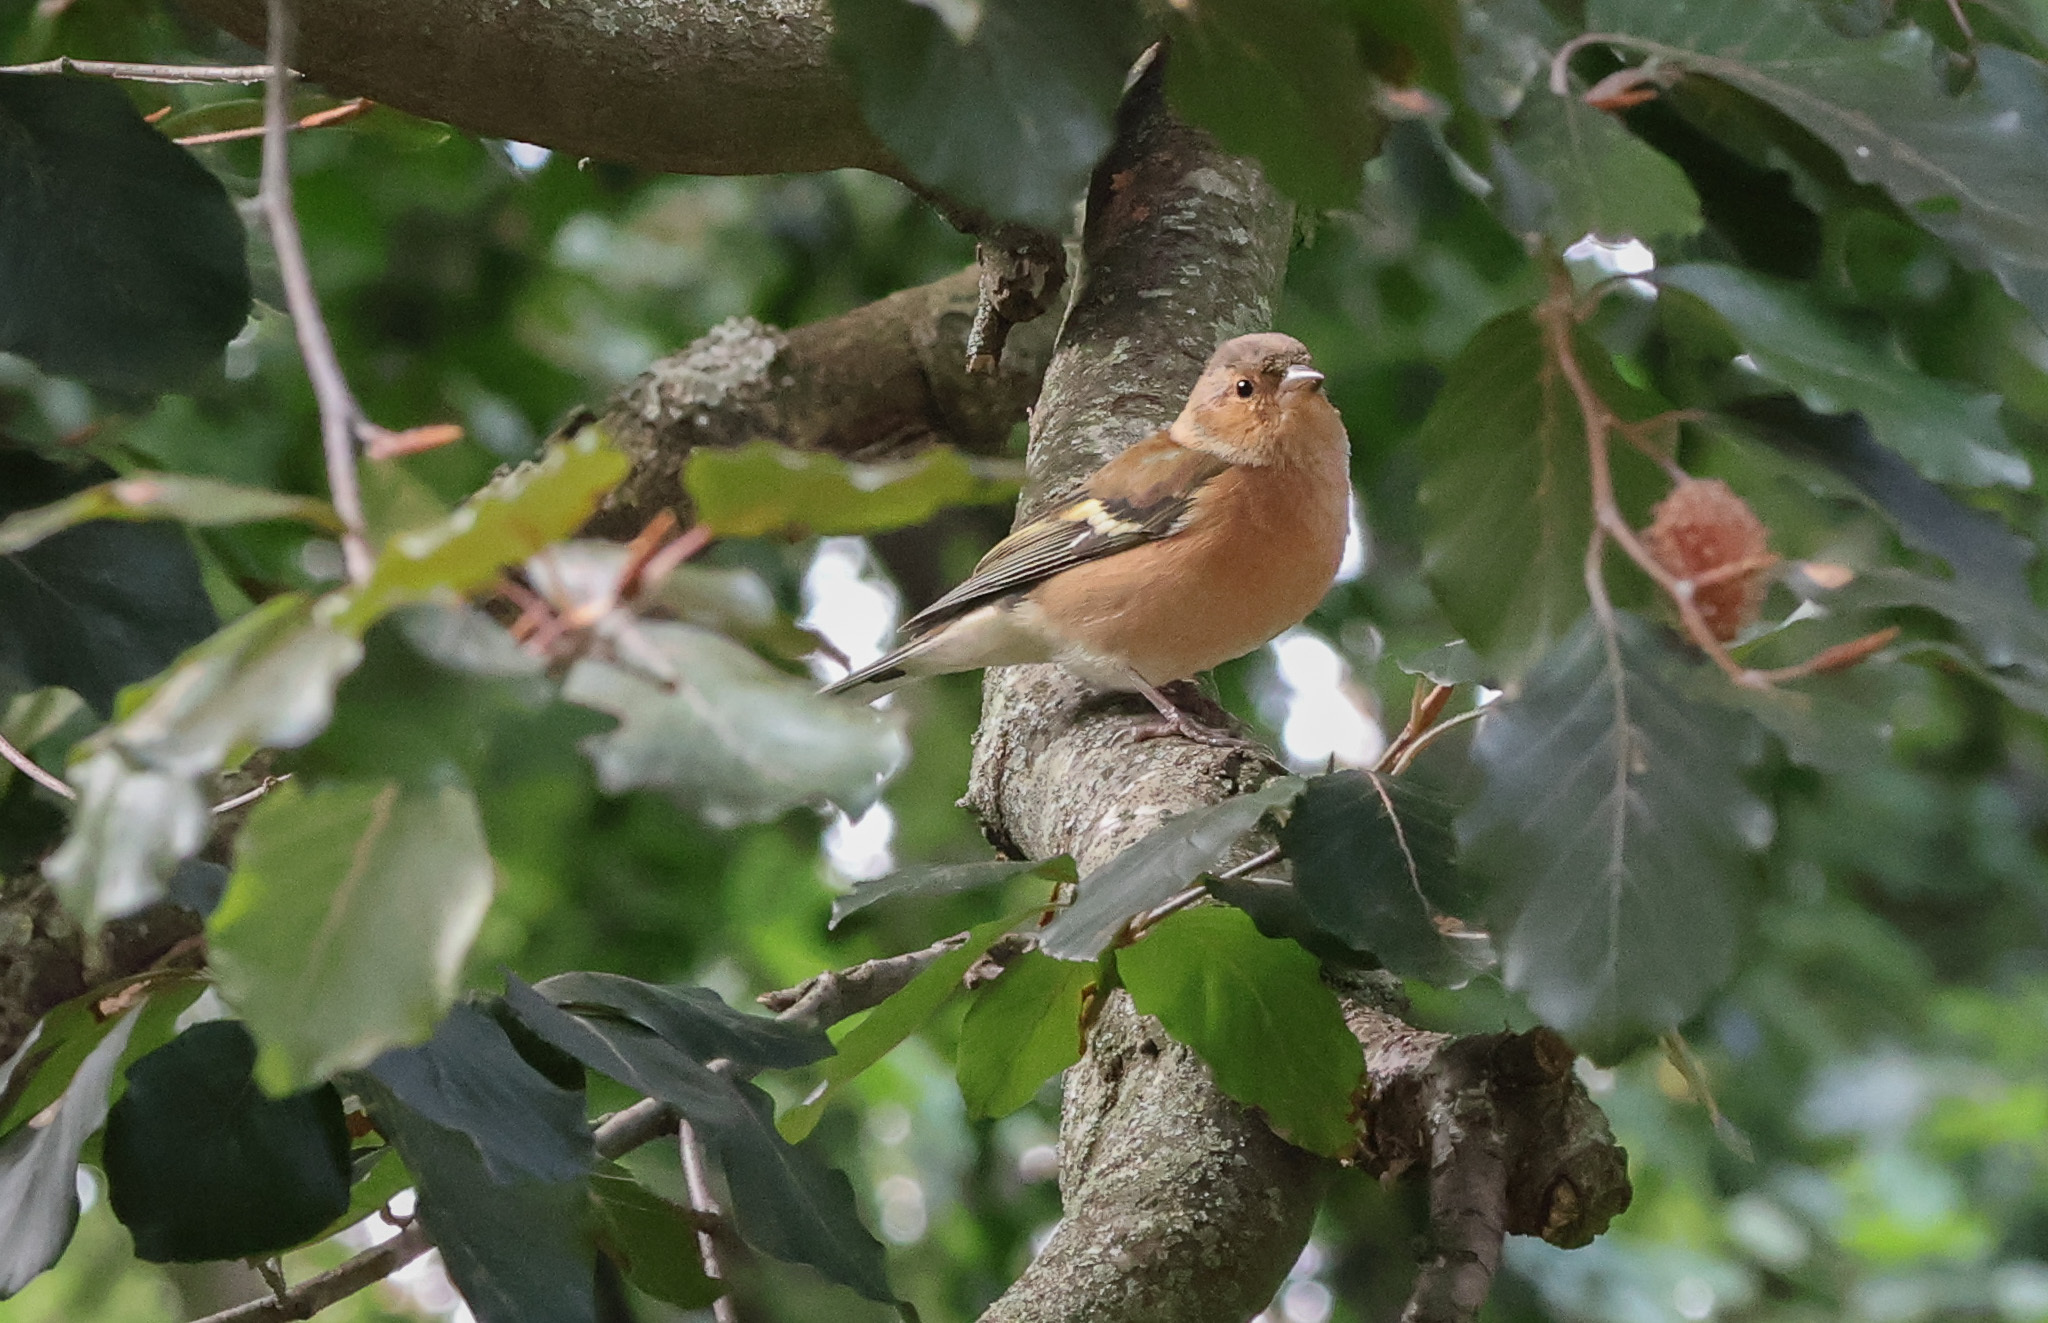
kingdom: Animalia
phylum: Chordata
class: Aves
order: Passeriformes
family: Fringillidae
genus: Fringilla
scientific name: Fringilla coelebs
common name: Common chaffinch
